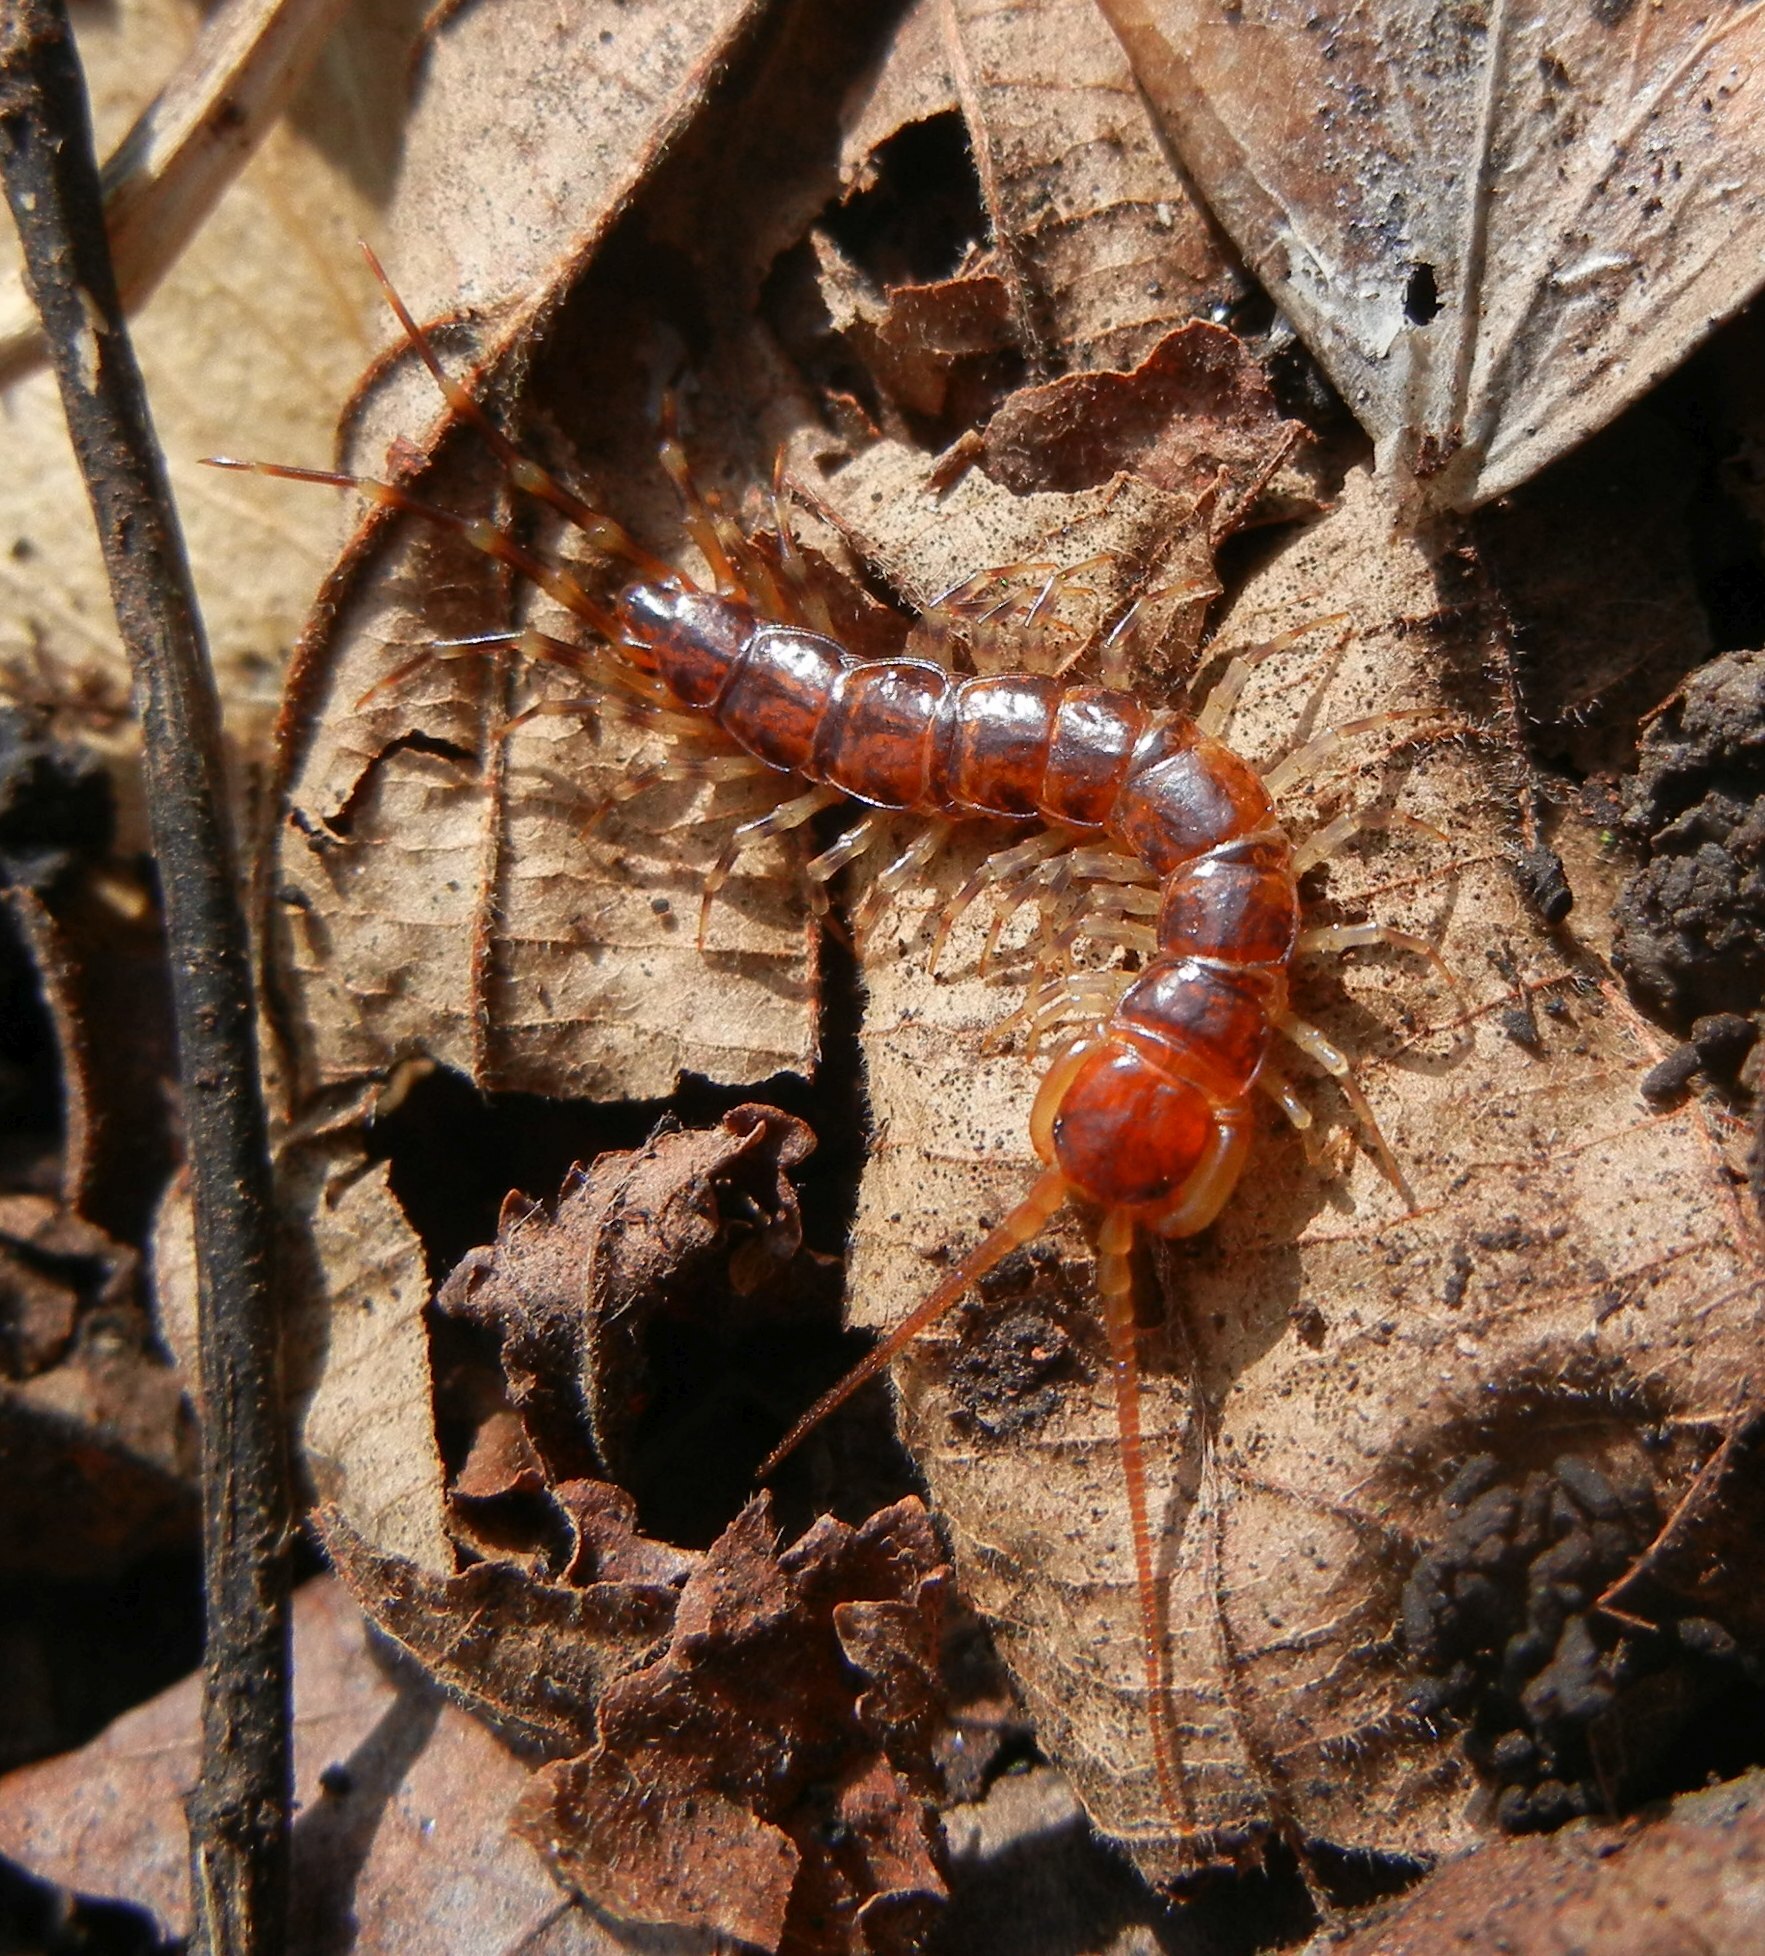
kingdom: Animalia
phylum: Arthropoda
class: Chilopoda
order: Lithobiomorpha
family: Lithobiidae
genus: Lithobius
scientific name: Lithobius variegatus
